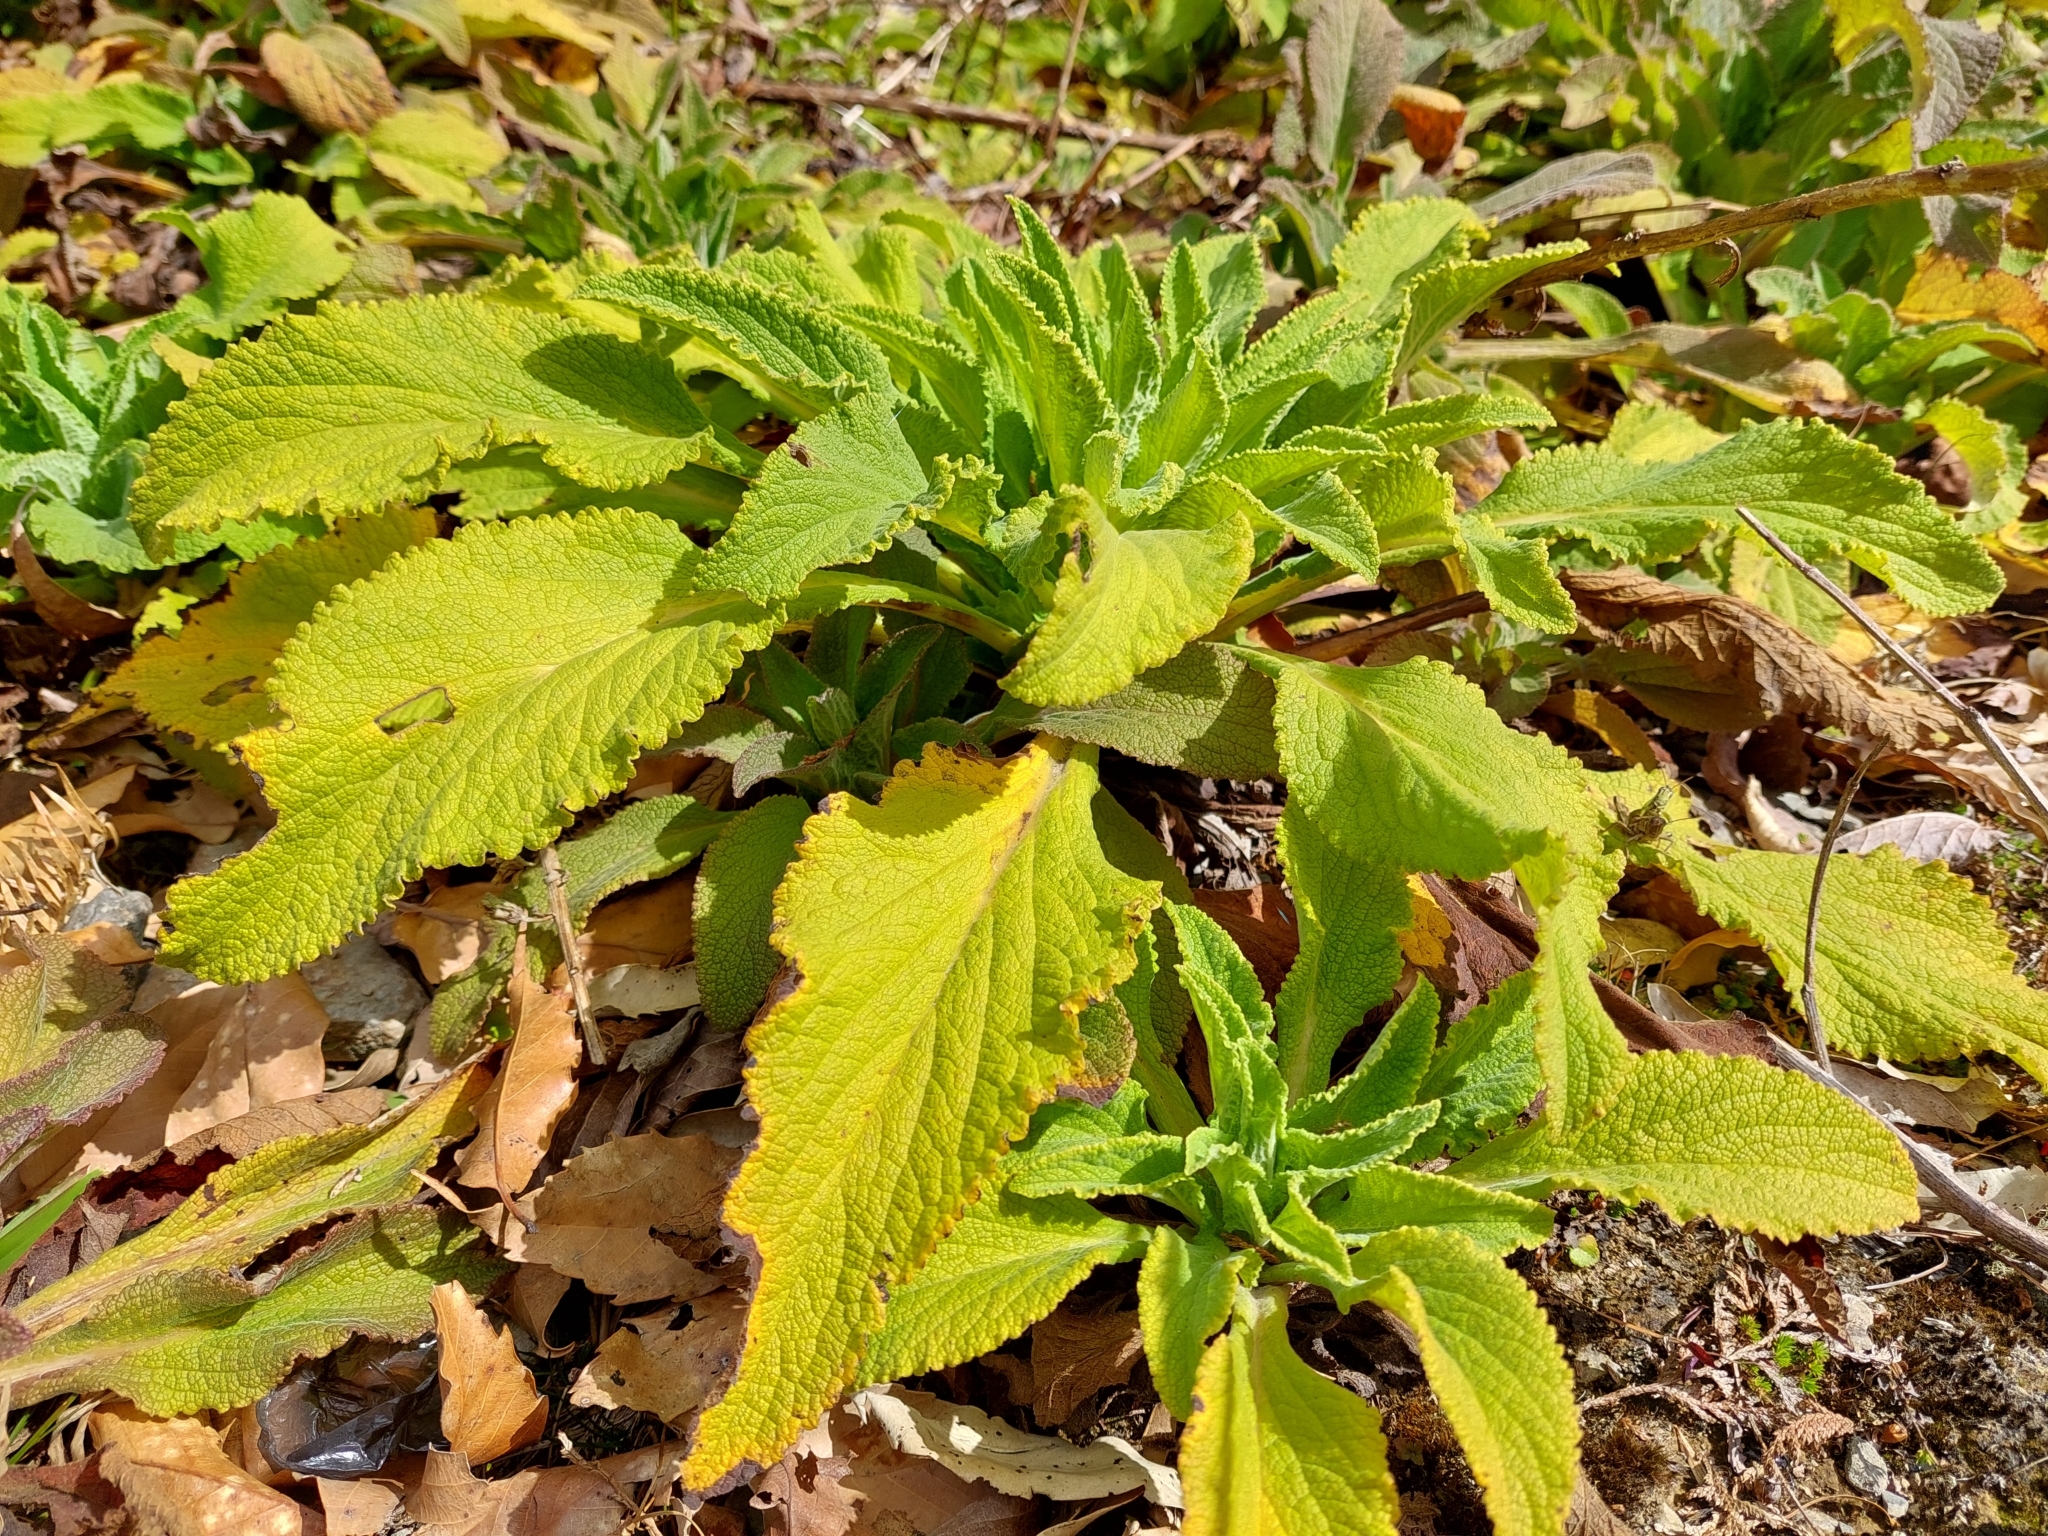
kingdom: Plantae
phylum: Tracheophyta
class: Magnoliopsida
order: Lamiales
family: Plantaginaceae
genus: Digitalis
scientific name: Digitalis purpurea
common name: Foxglove
